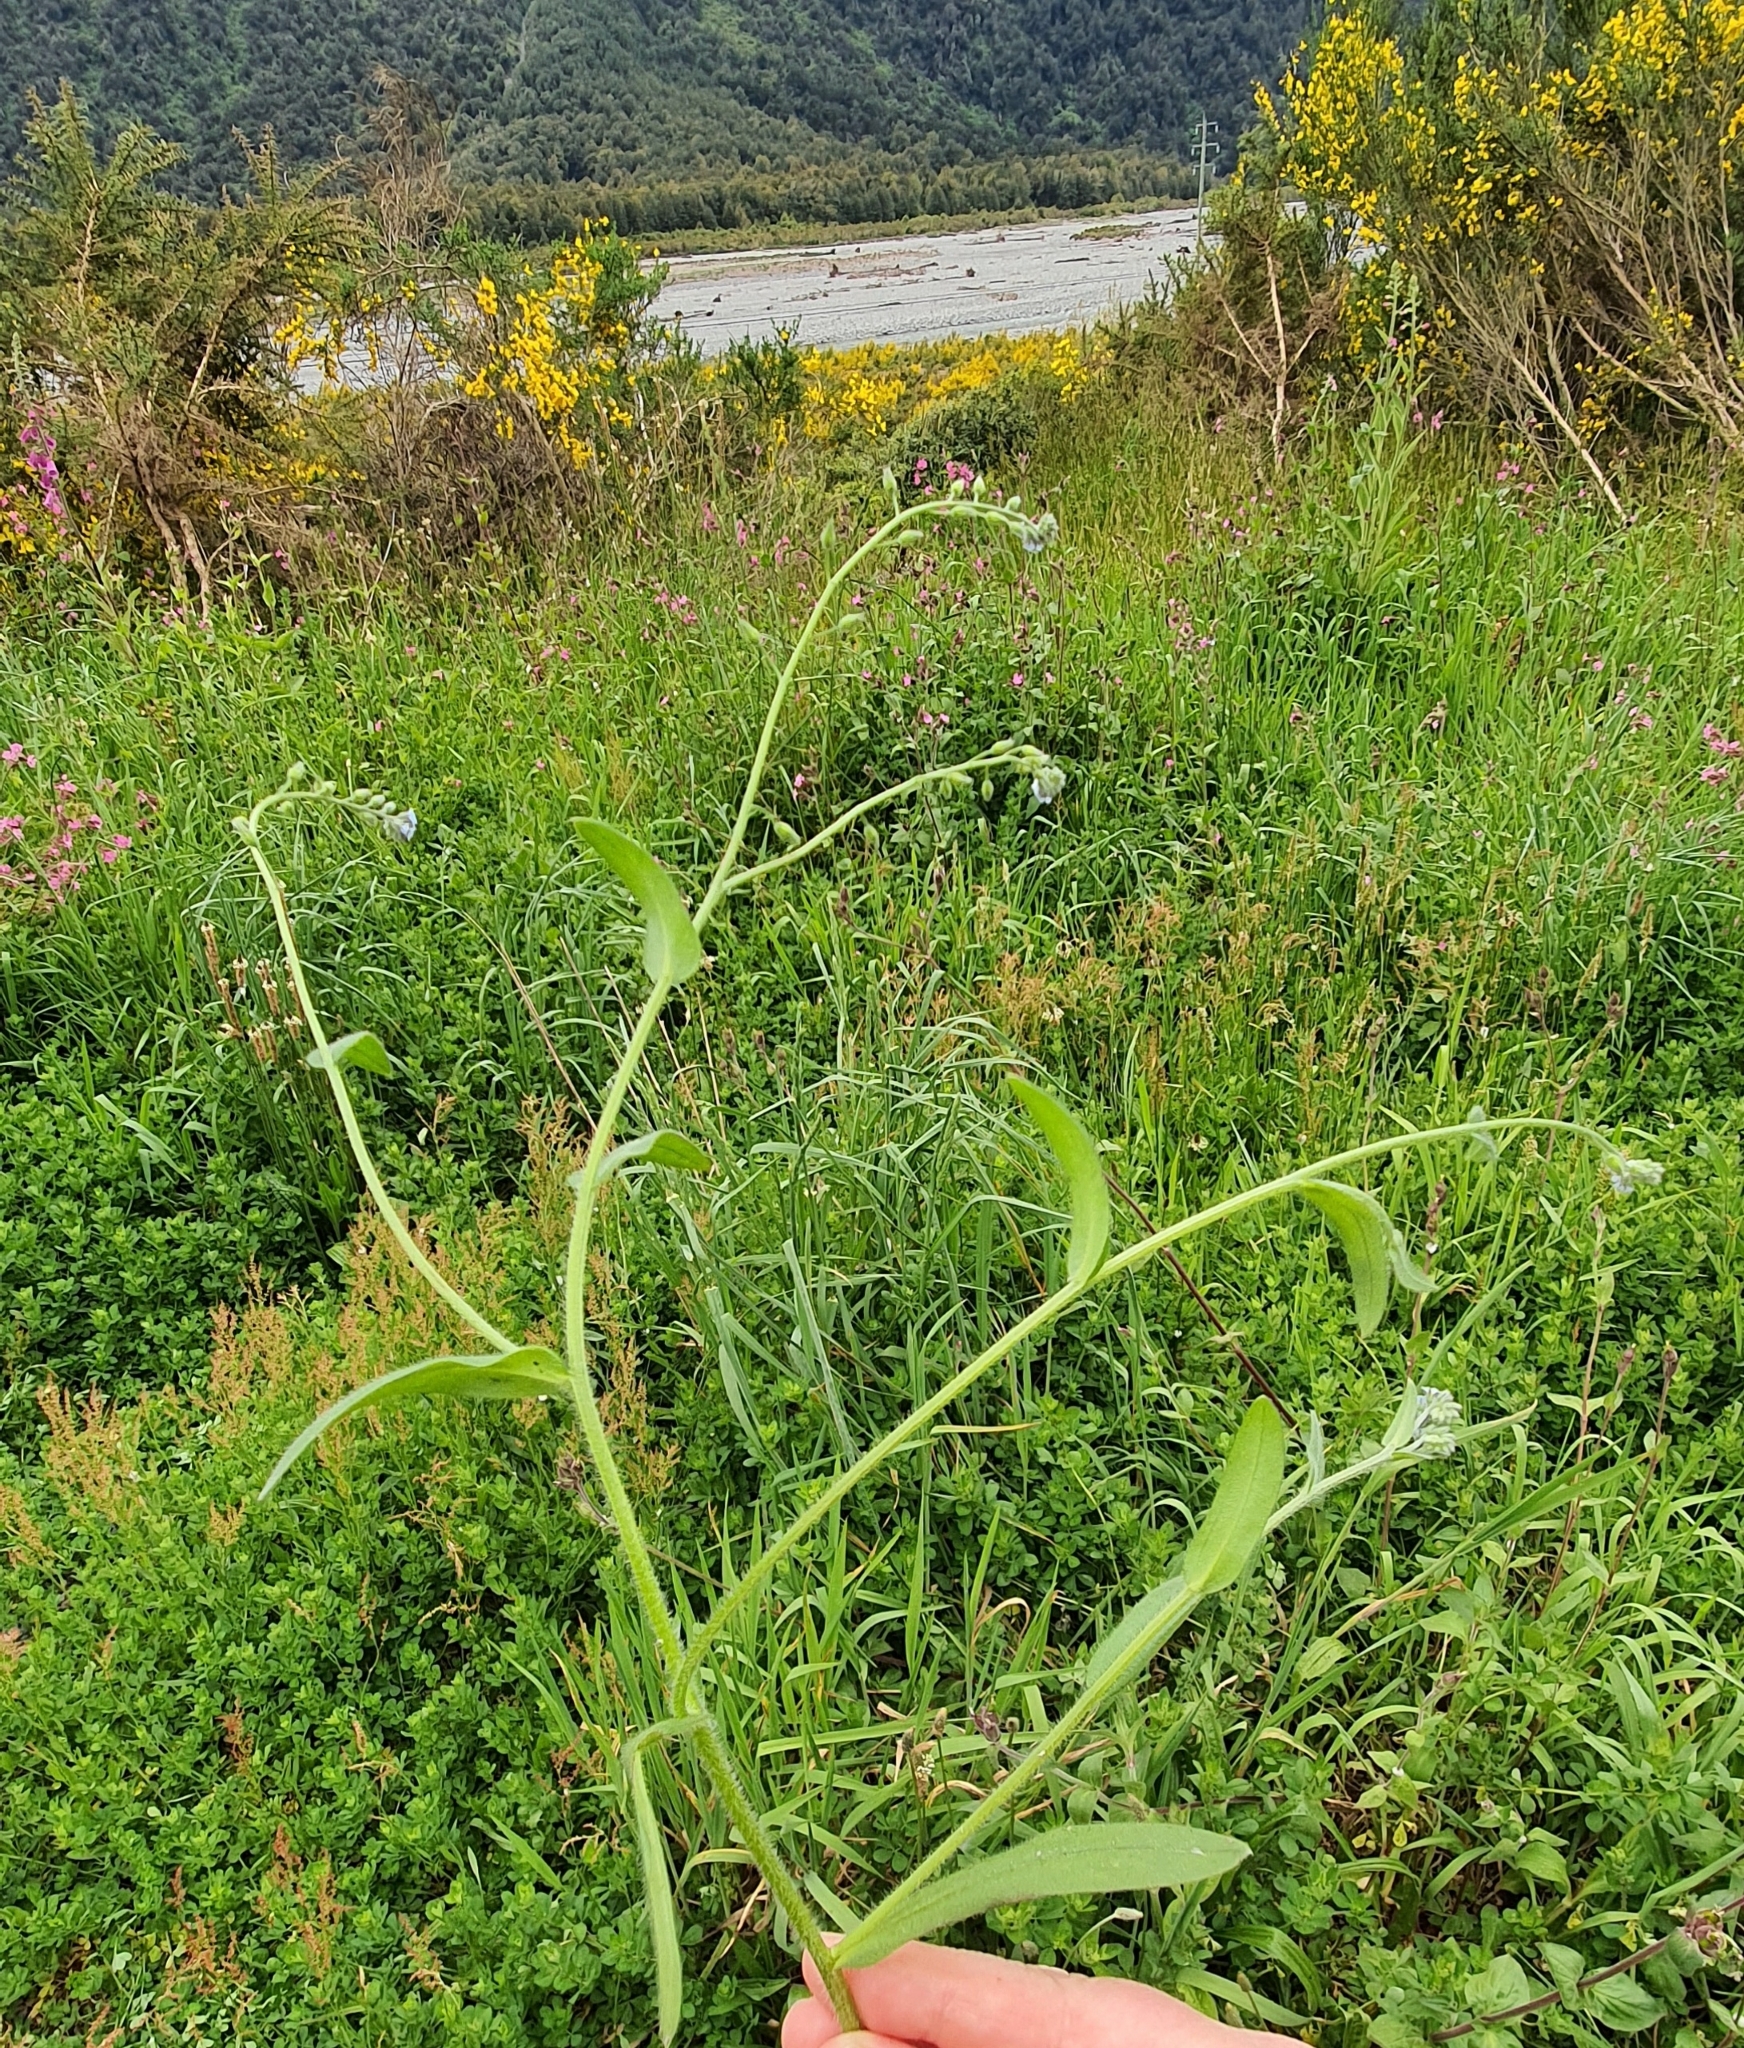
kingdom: Plantae
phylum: Tracheophyta
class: Magnoliopsida
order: Boraginales
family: Boraginaceae
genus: Myosotis
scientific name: Myosotis arvensis
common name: Field forget-me-not
